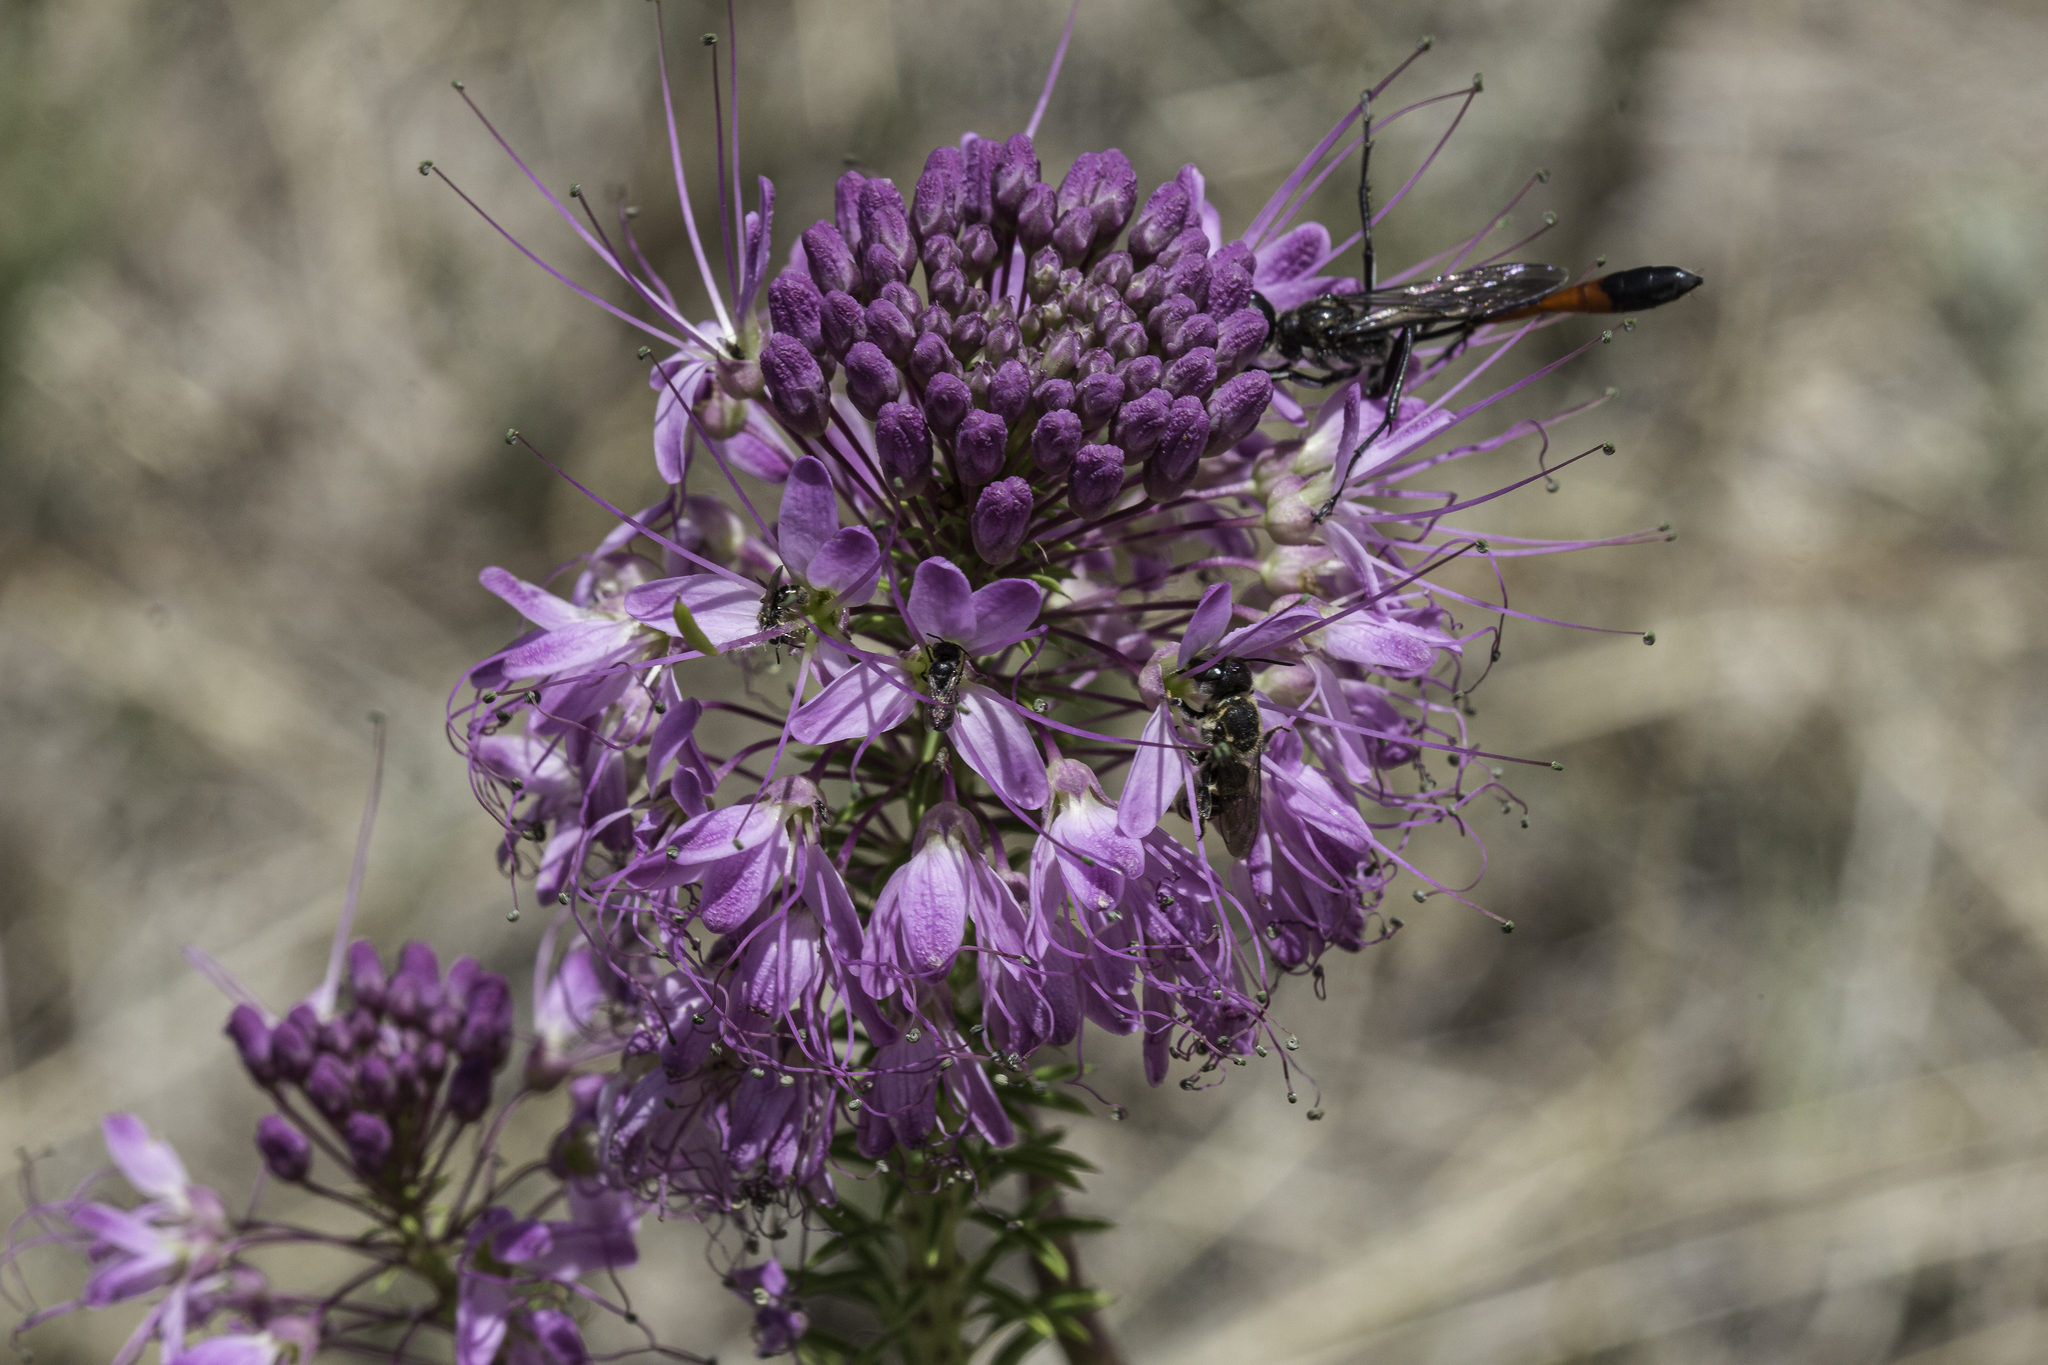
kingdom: Plantae
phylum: Tracheophyta
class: Magnoliopsida
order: Brassicales
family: Cleomaceae
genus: Cleomella
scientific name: Cleomella serrulata
